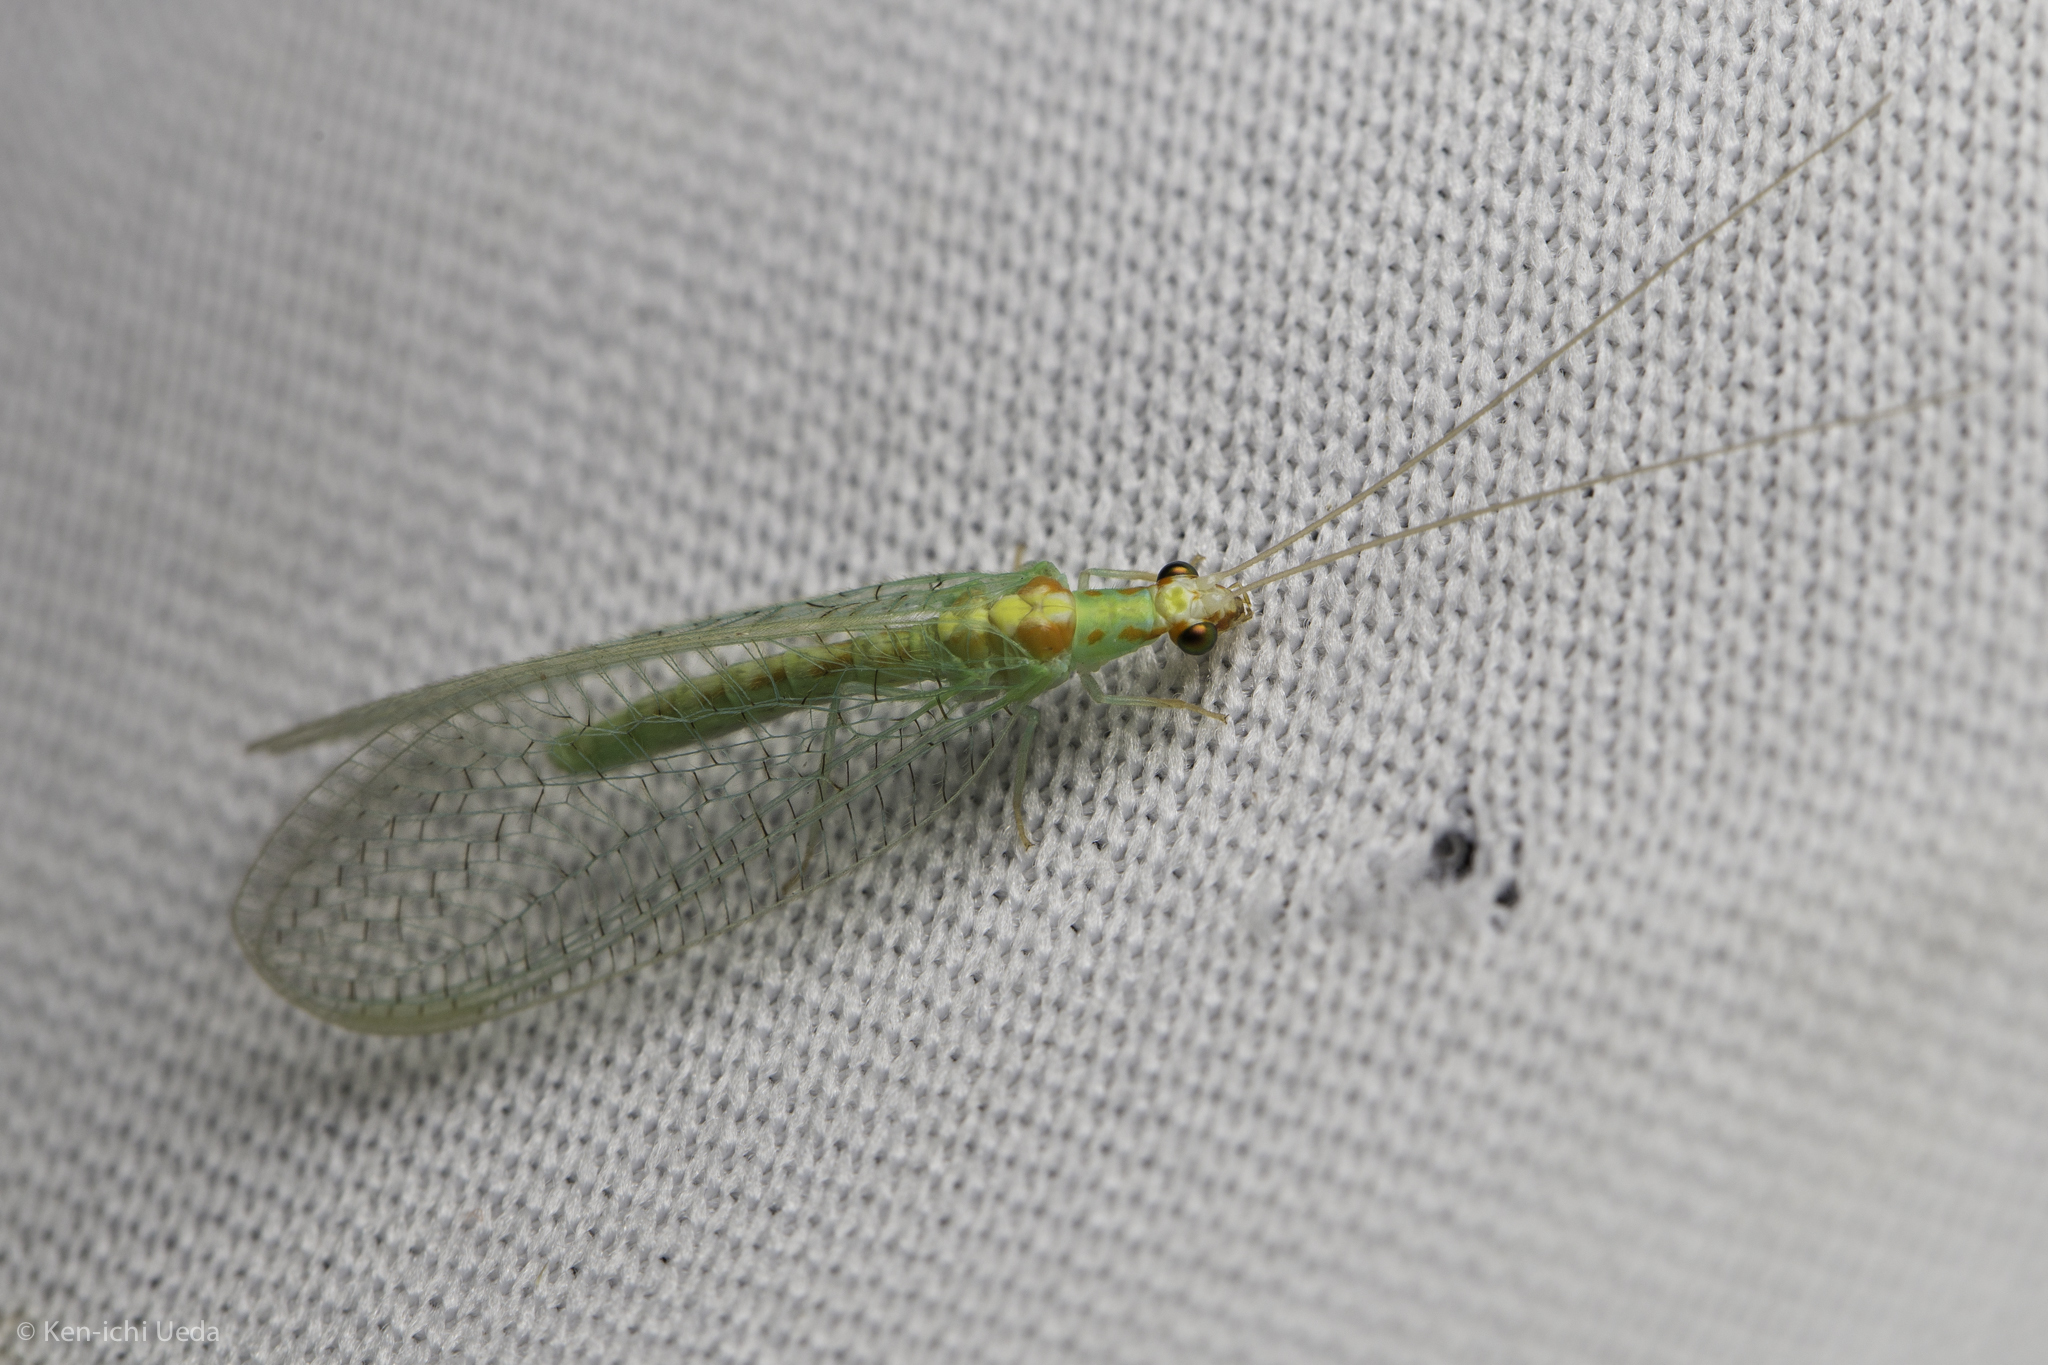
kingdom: Animalia
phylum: Arthropoda
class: Insecta
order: Neuroptera
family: Chrysopidae
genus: Chrysopa
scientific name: Chrysopa quadripunctata
